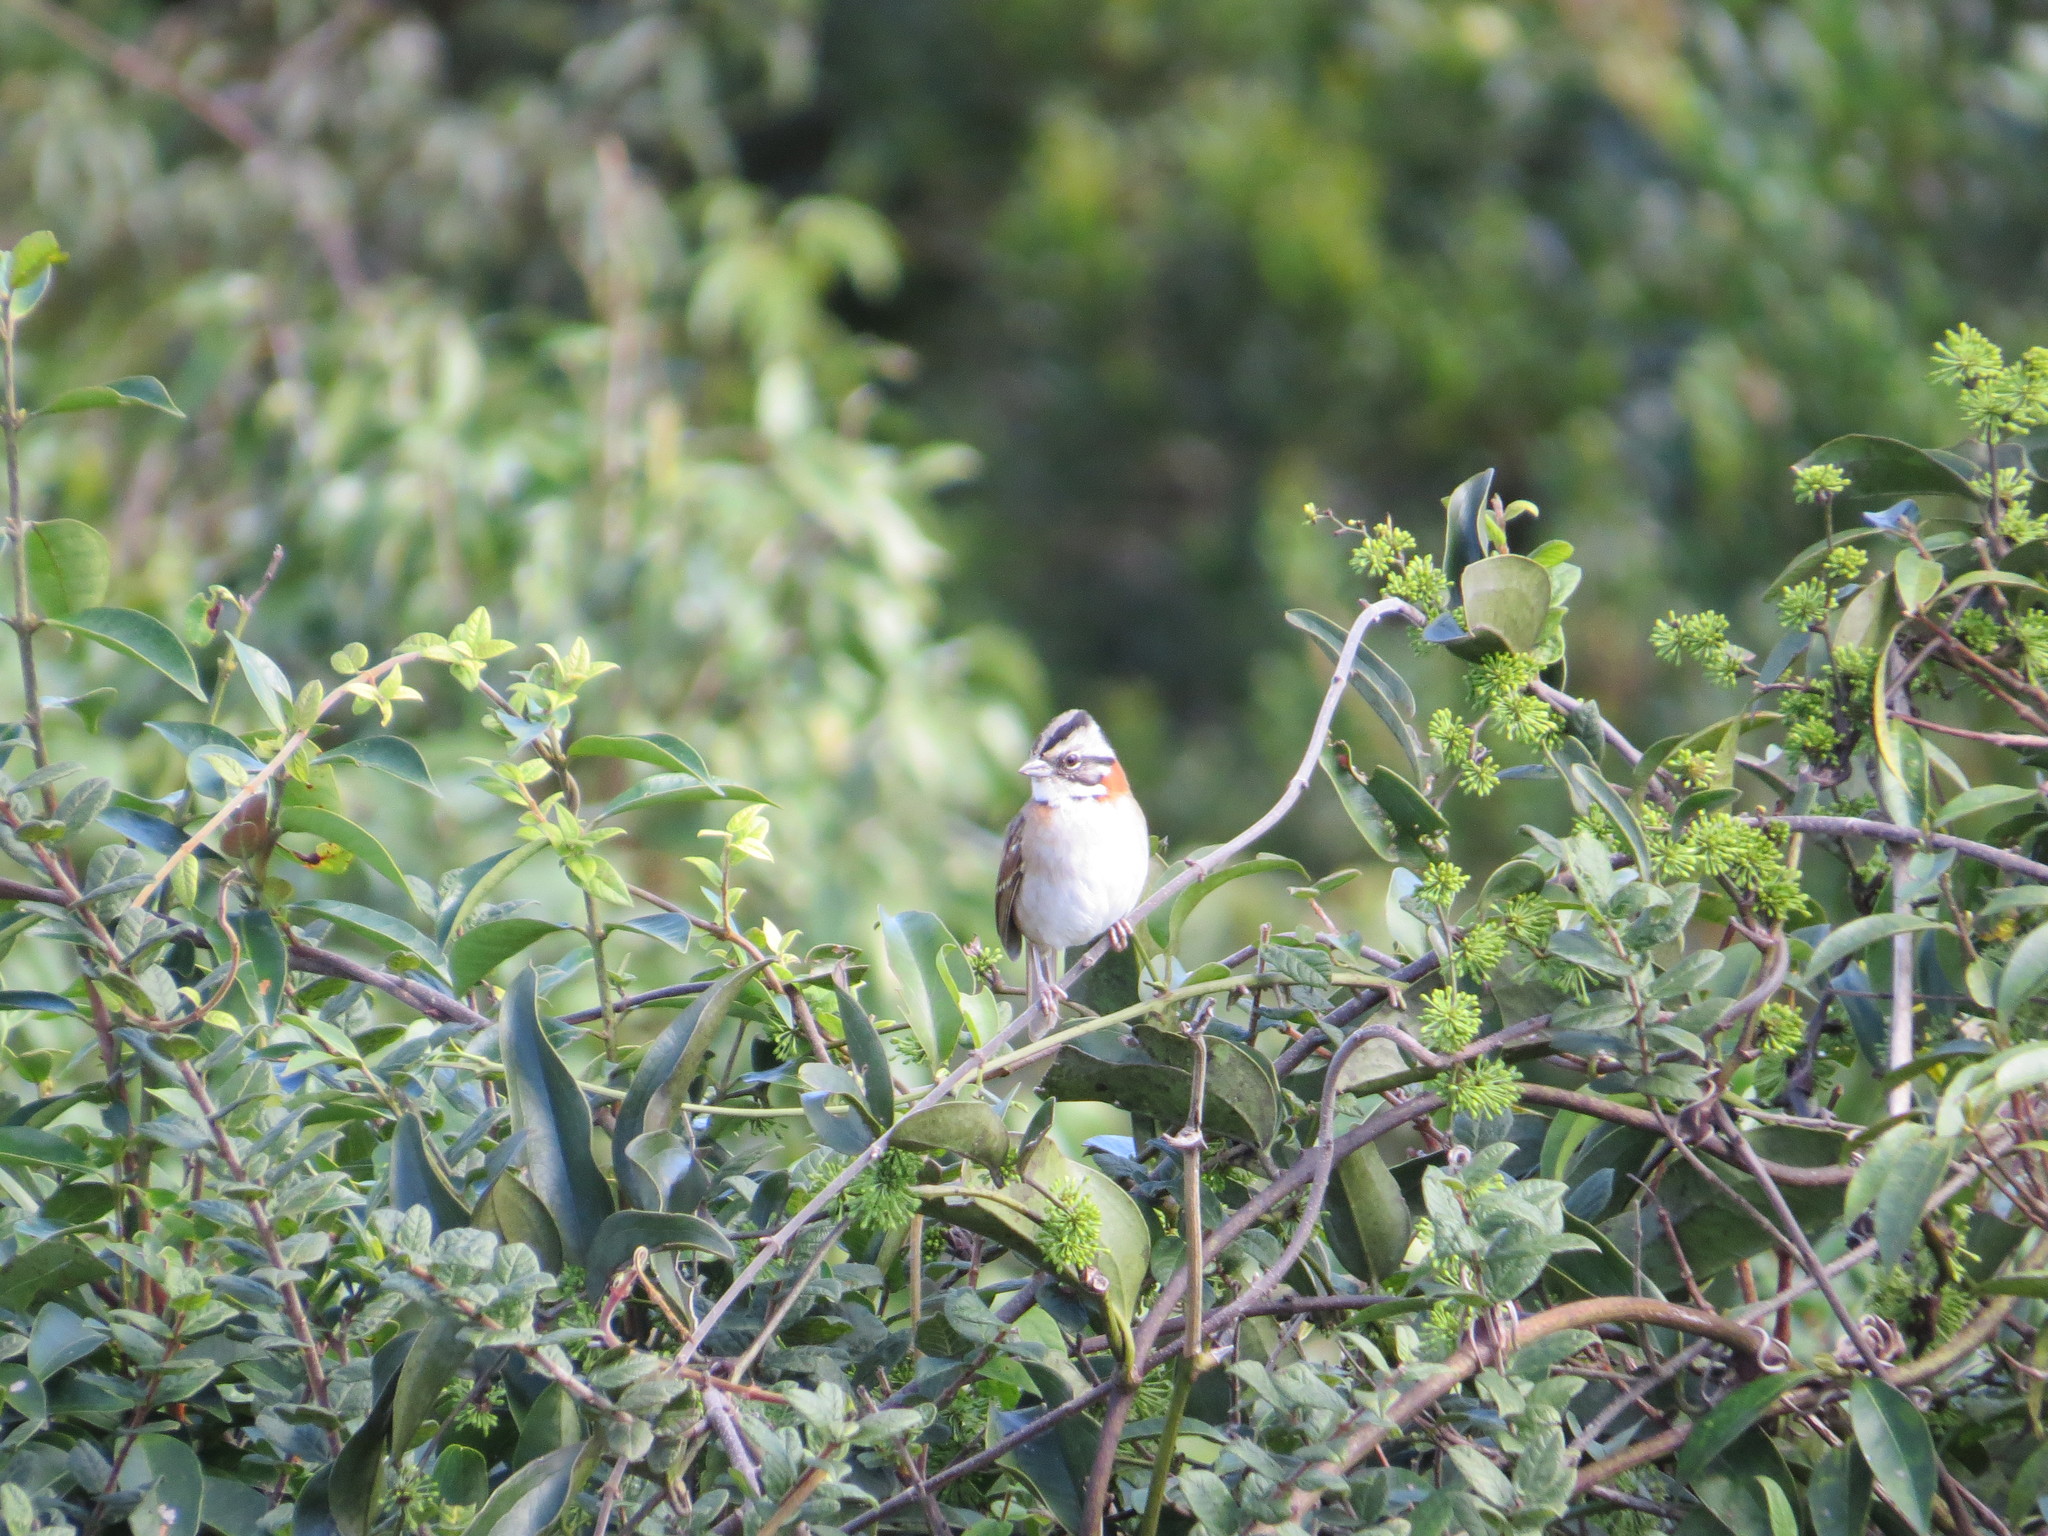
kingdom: Animalia
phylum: Chordata
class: Aves
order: Passeriformes
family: Passerellidae
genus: Zonotrichia
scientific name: Zonotrichia capensis
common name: Rufous-collared sparrow
